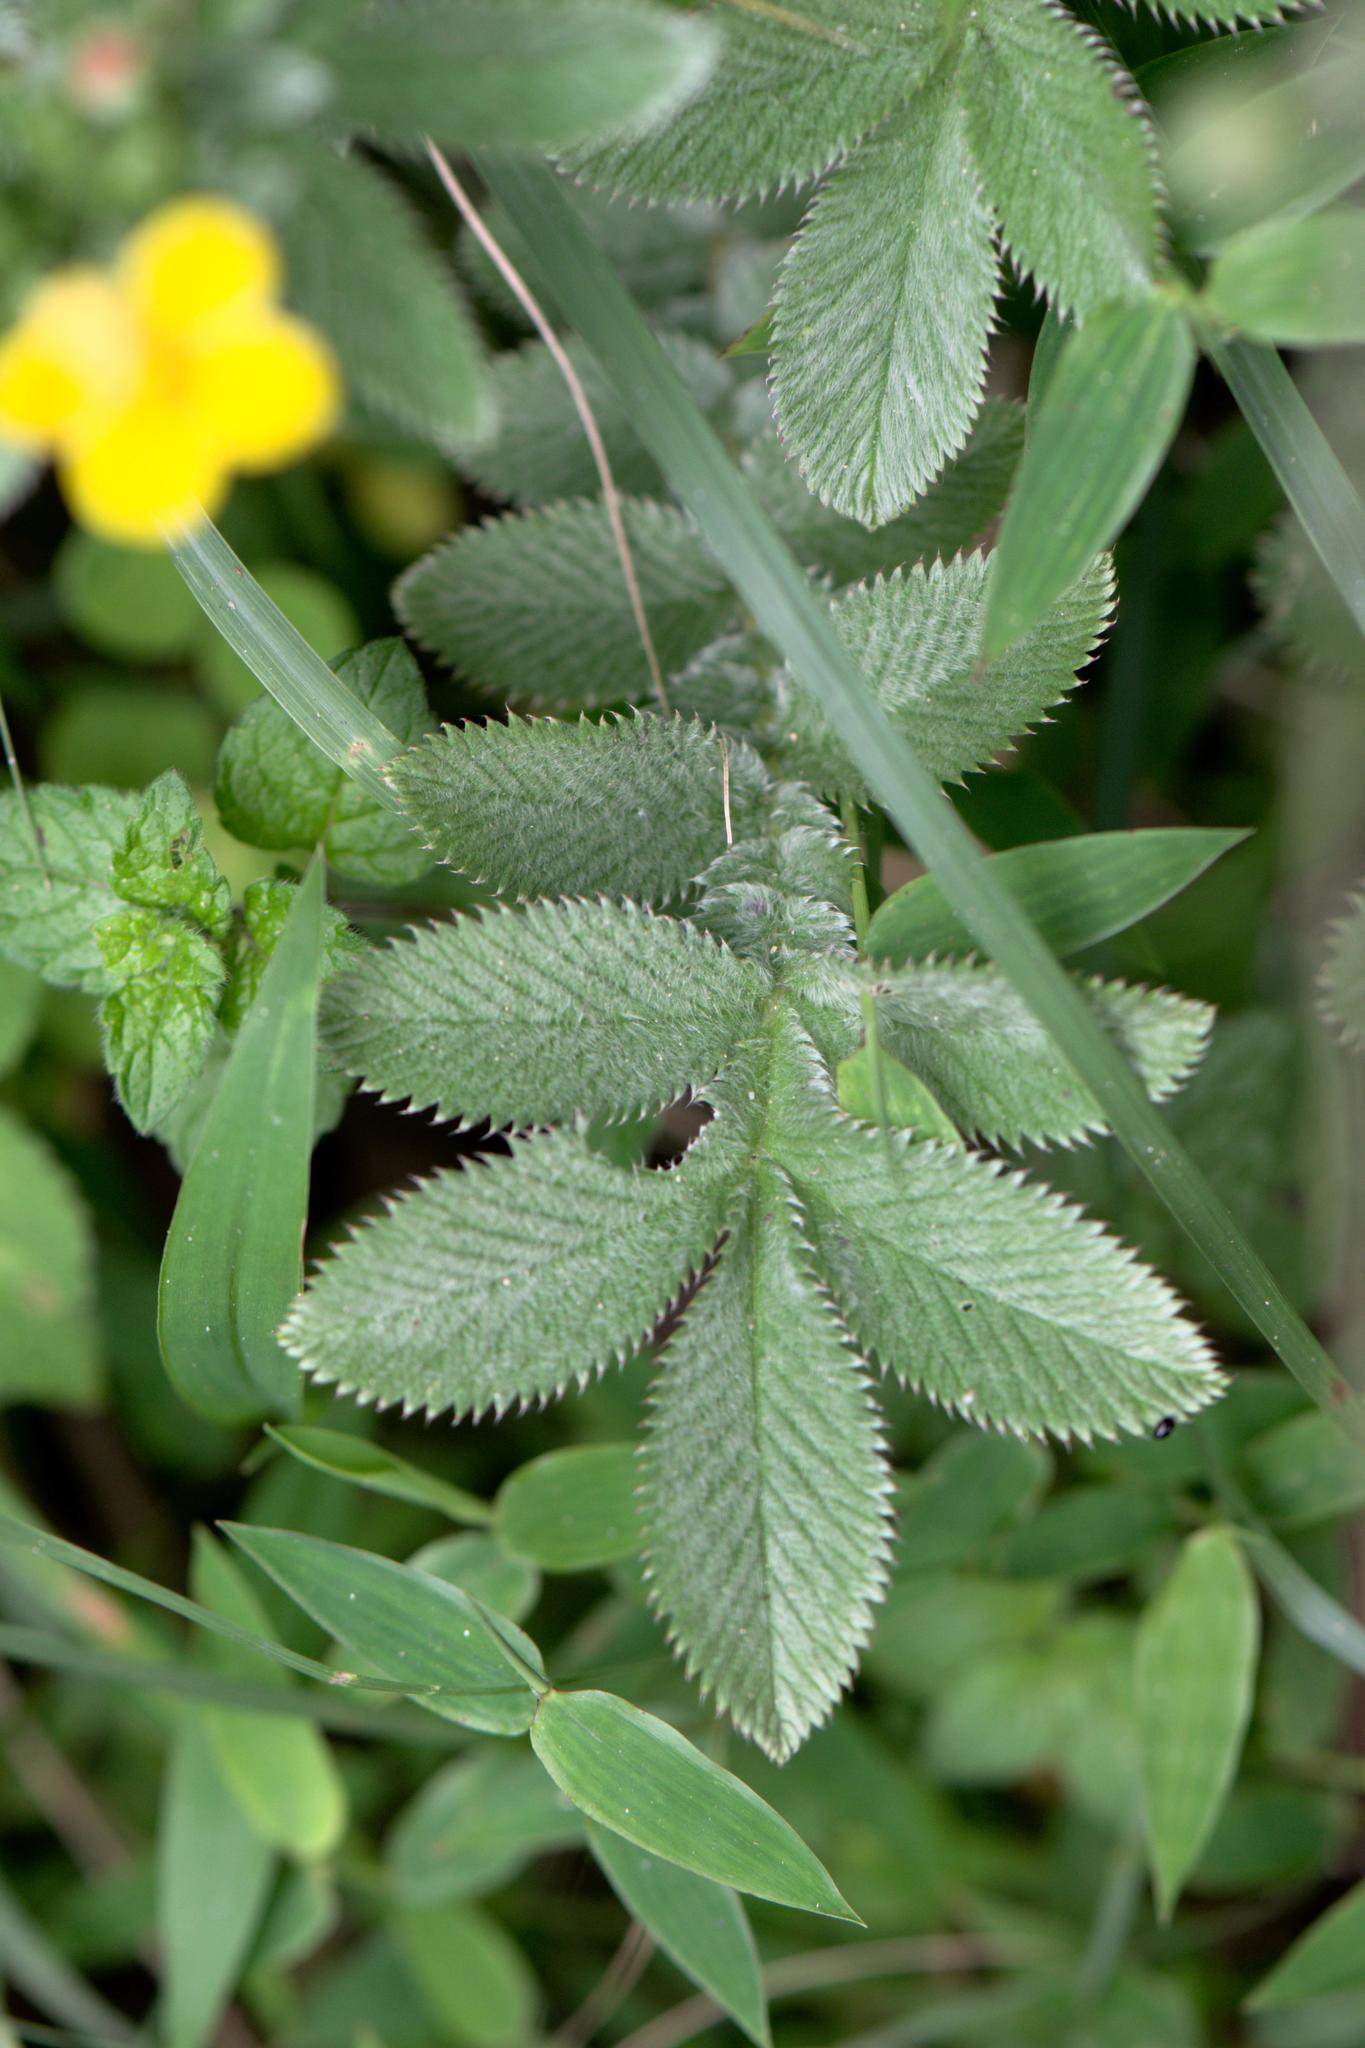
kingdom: Plantae
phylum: Tracheophyta
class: Magnoliopsida
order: Rosales
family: Rosaceae
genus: Argentina
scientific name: Argentina lineata
